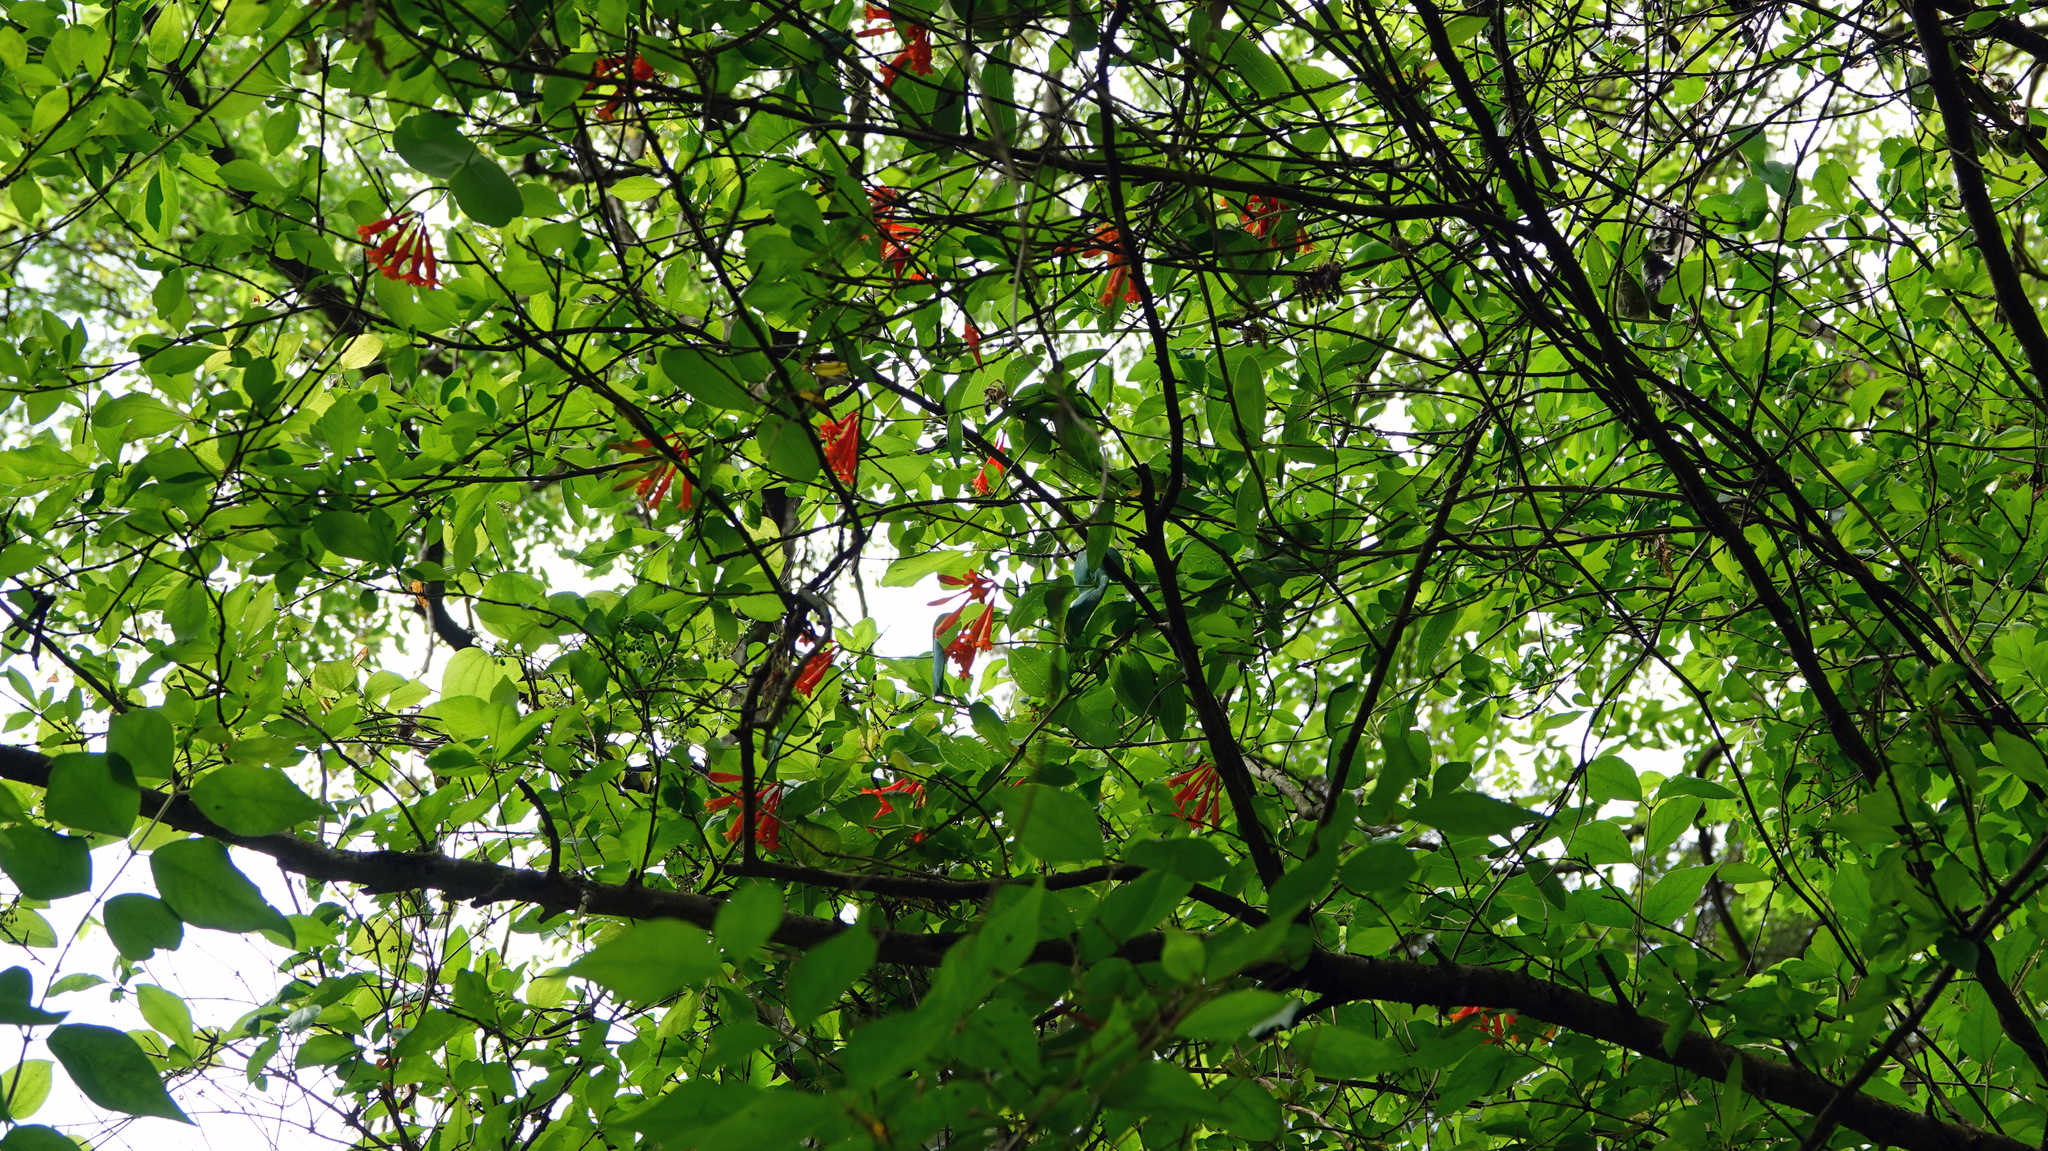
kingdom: Plantae
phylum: Tracheophyta
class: Magnoliopsida
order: Dipsacales
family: Caprifoliaceae
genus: Lonicera
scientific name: Lonicera sempervirens
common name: Coral honeysuckle
